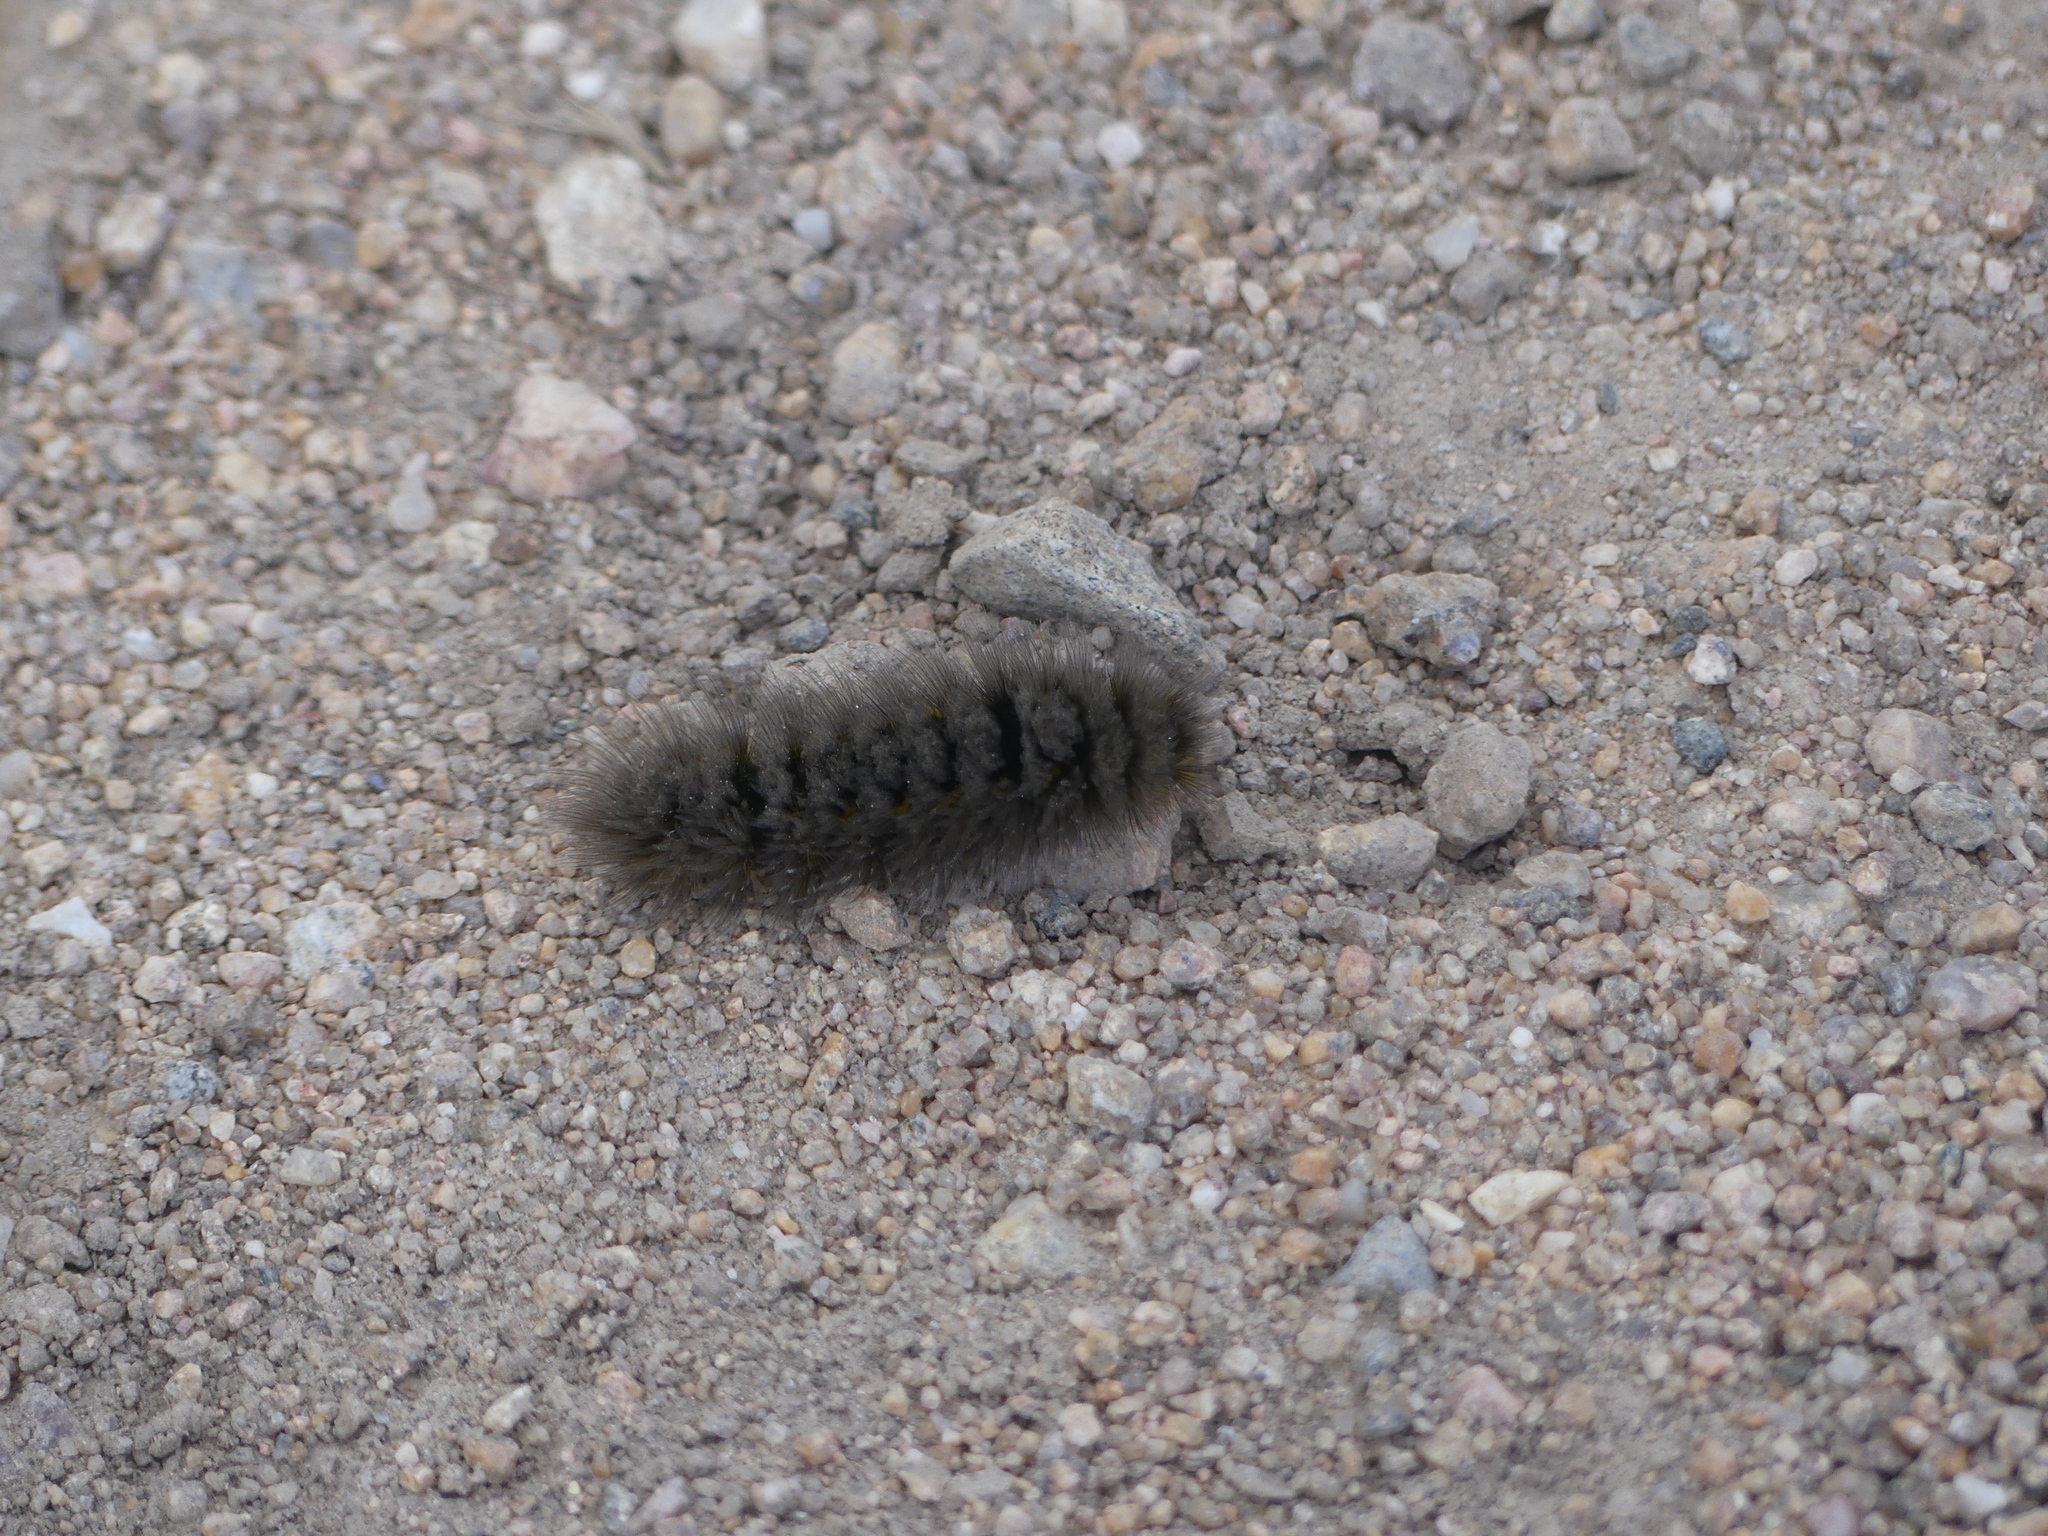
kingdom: Animalia
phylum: Arthropoda
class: Insecta
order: Lepidoptera
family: Erebidae
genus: Gynaephora
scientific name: Gynaephora rossii
